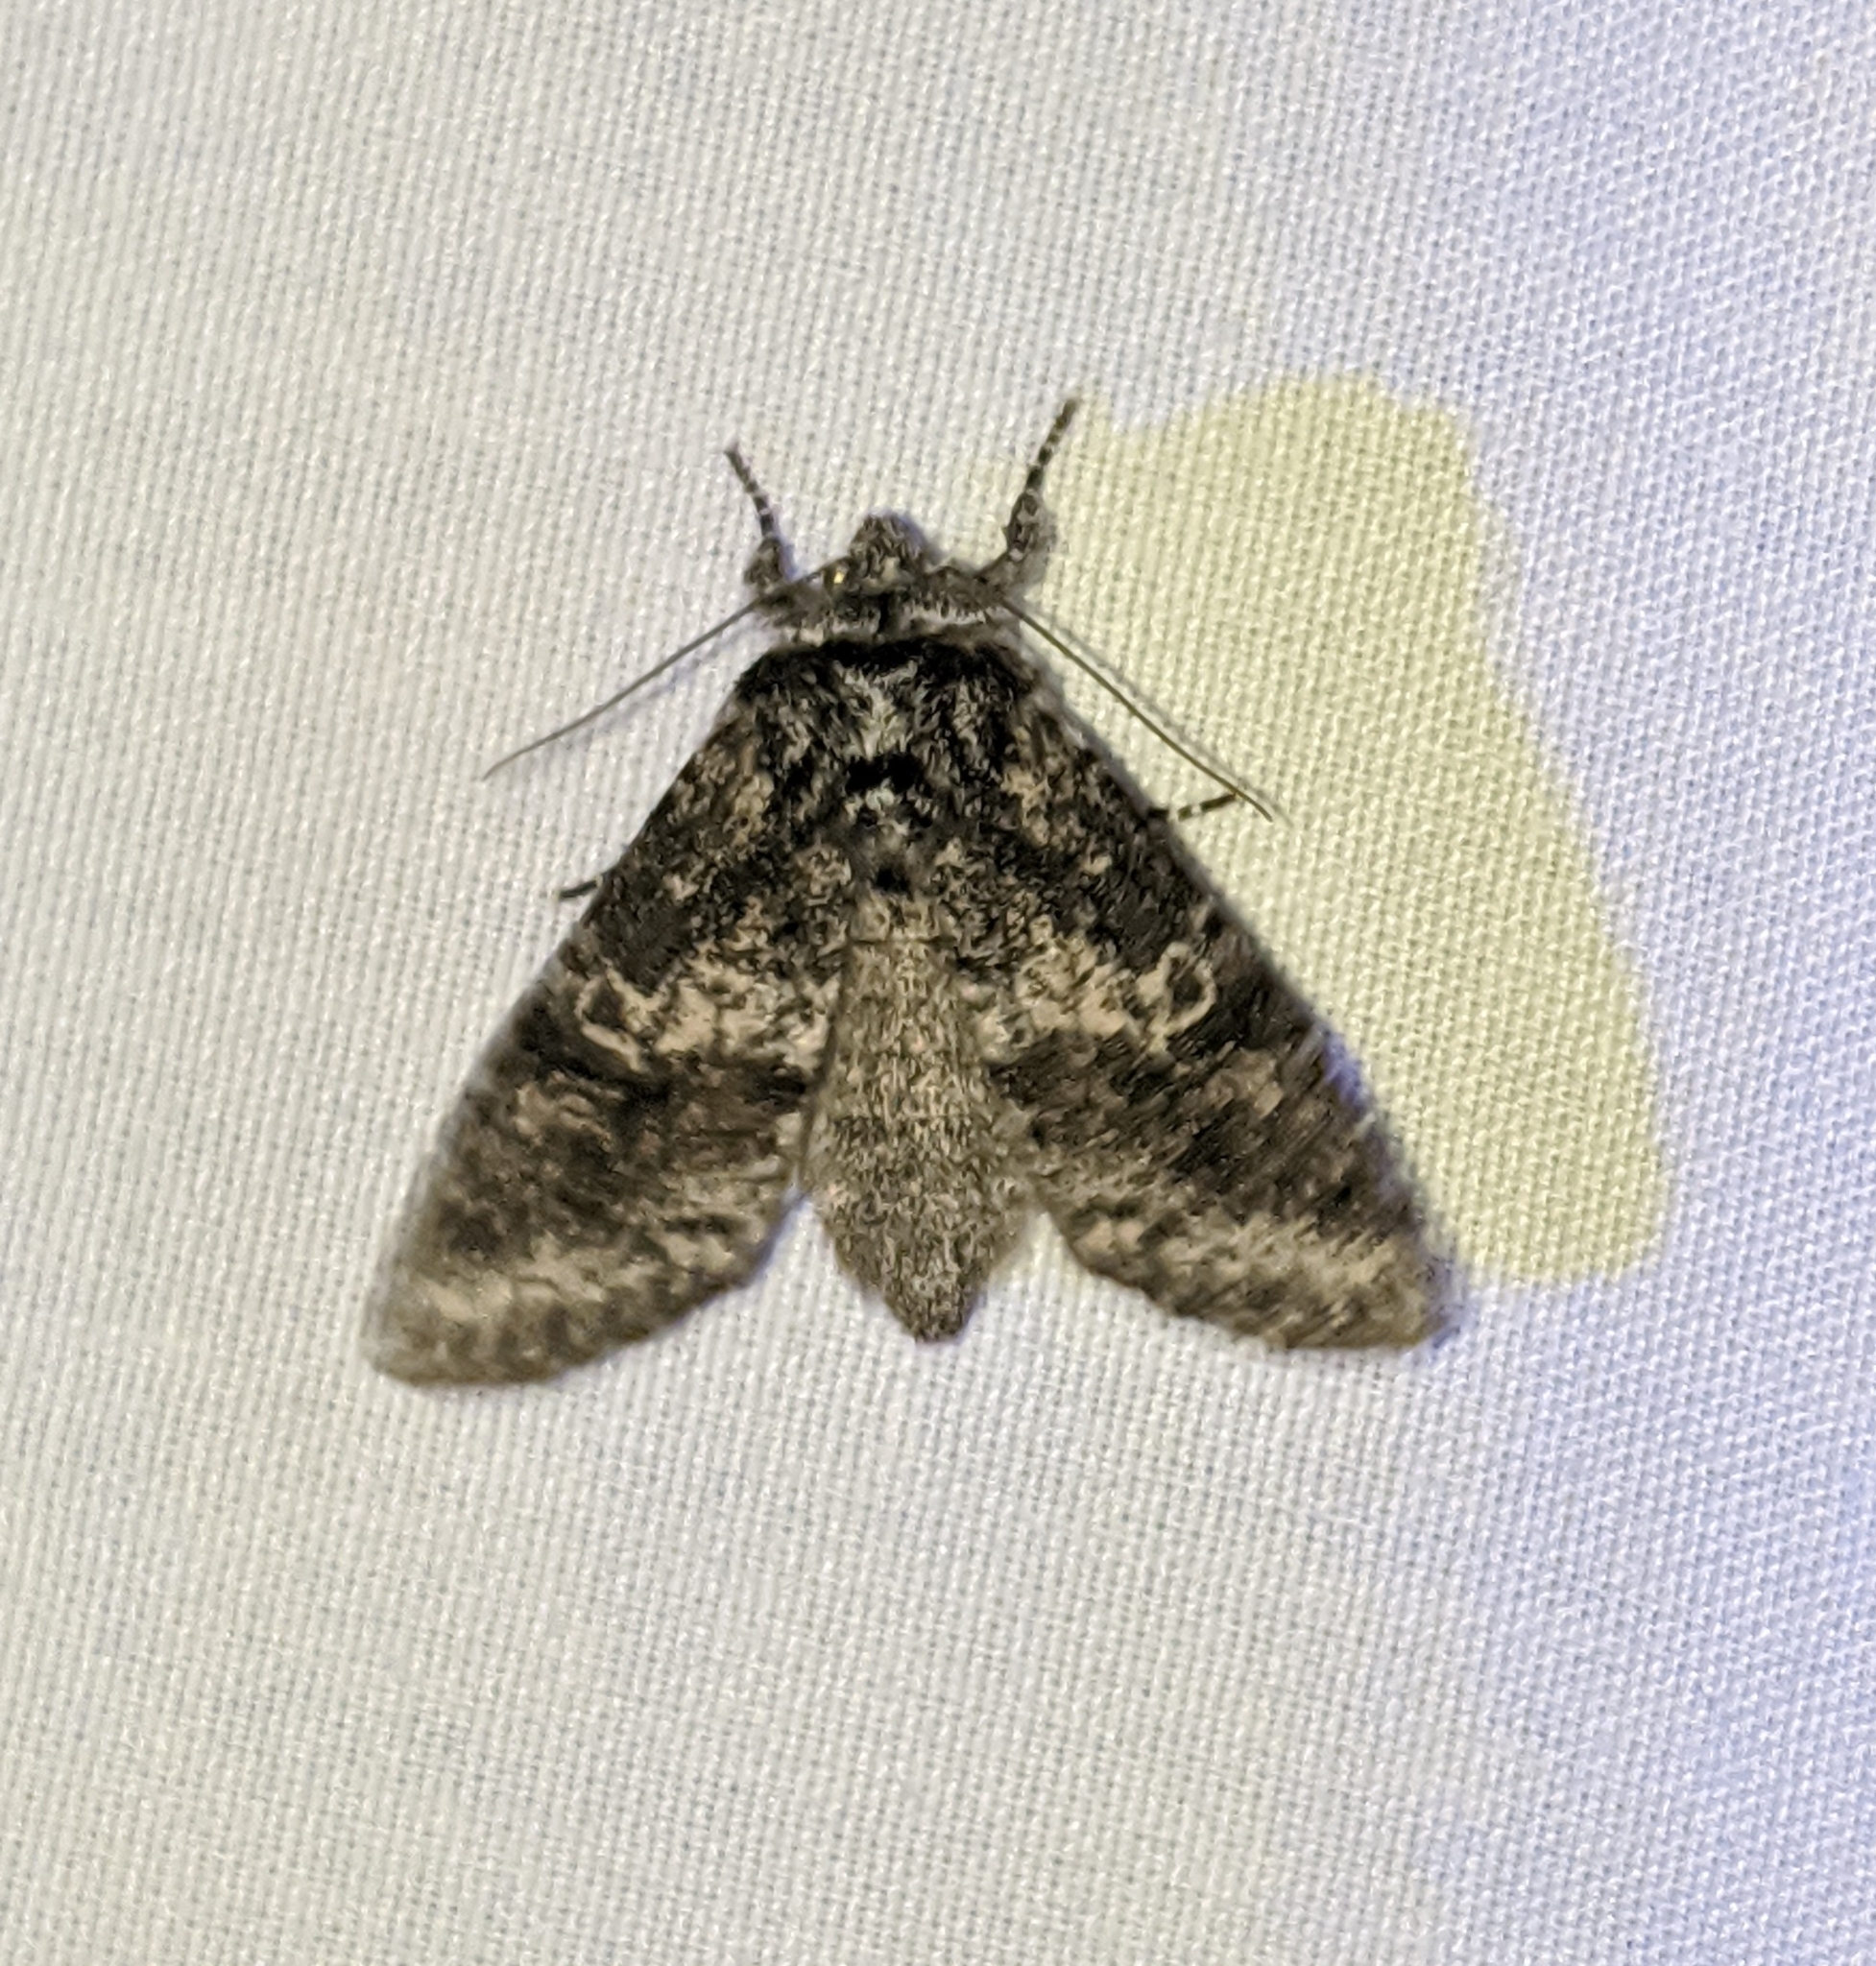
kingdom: Animalia
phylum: Arthropoda
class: Insecta
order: Lepidoptera
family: Noctuidae
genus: Egira
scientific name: Egira dolosa
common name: Lined black aspen cat.
